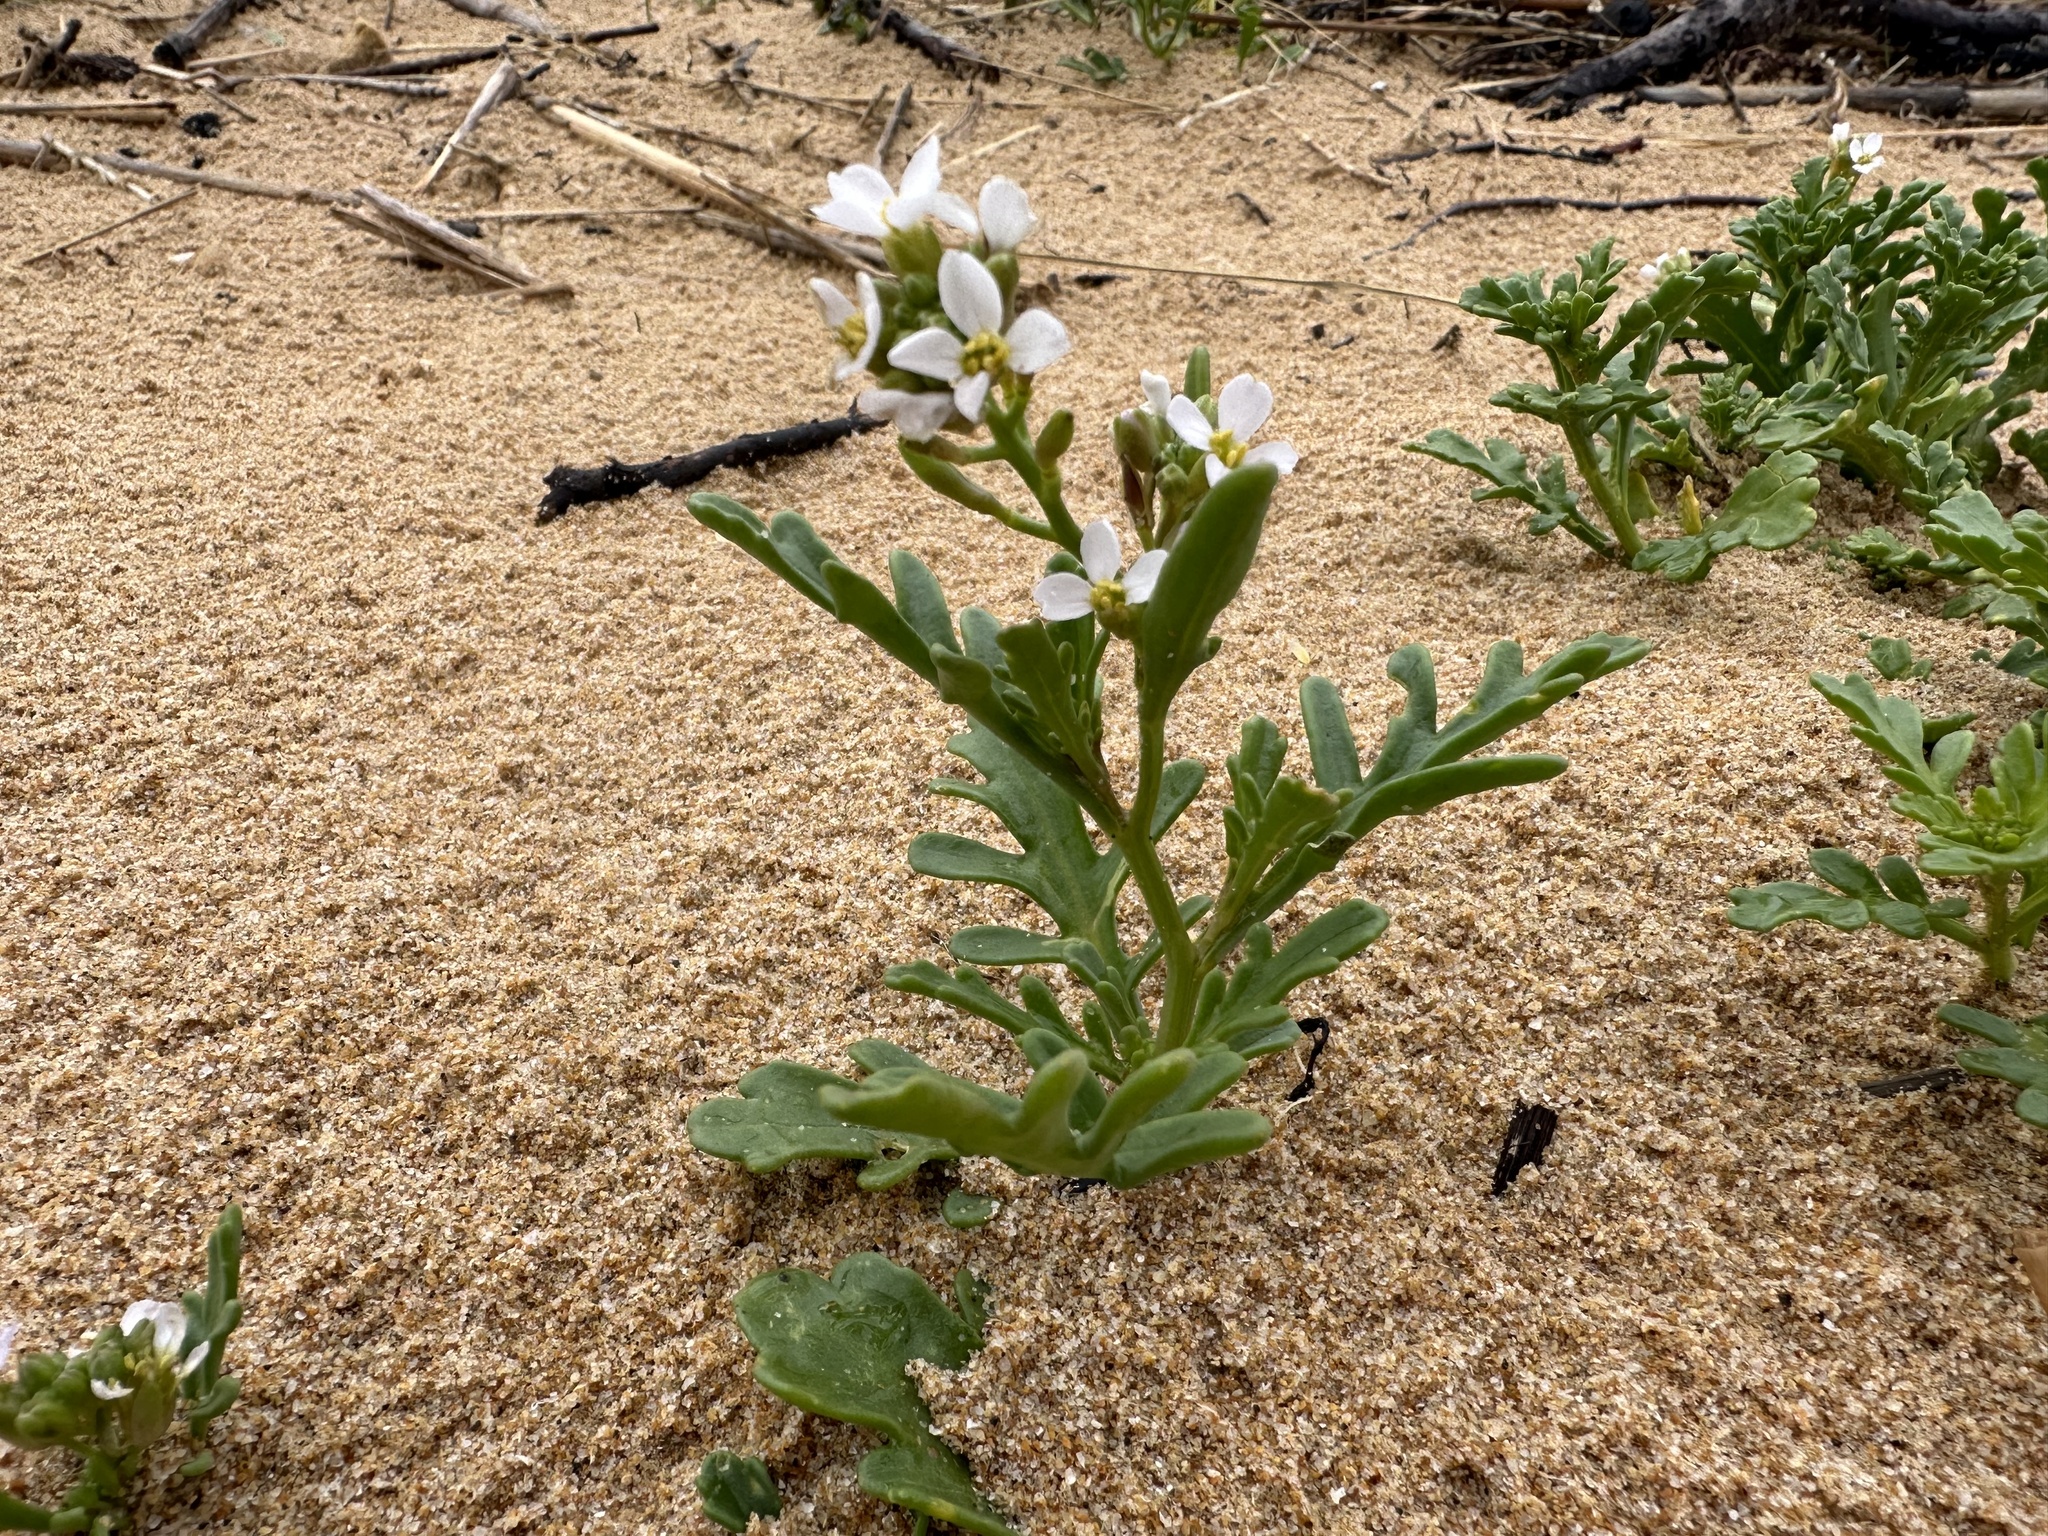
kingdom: Plantae
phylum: Tracheophyta
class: Magnoliopsida
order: Brassicales
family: Brassicaceae
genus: Cakile
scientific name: Cakile maritima
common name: Sea rocket
